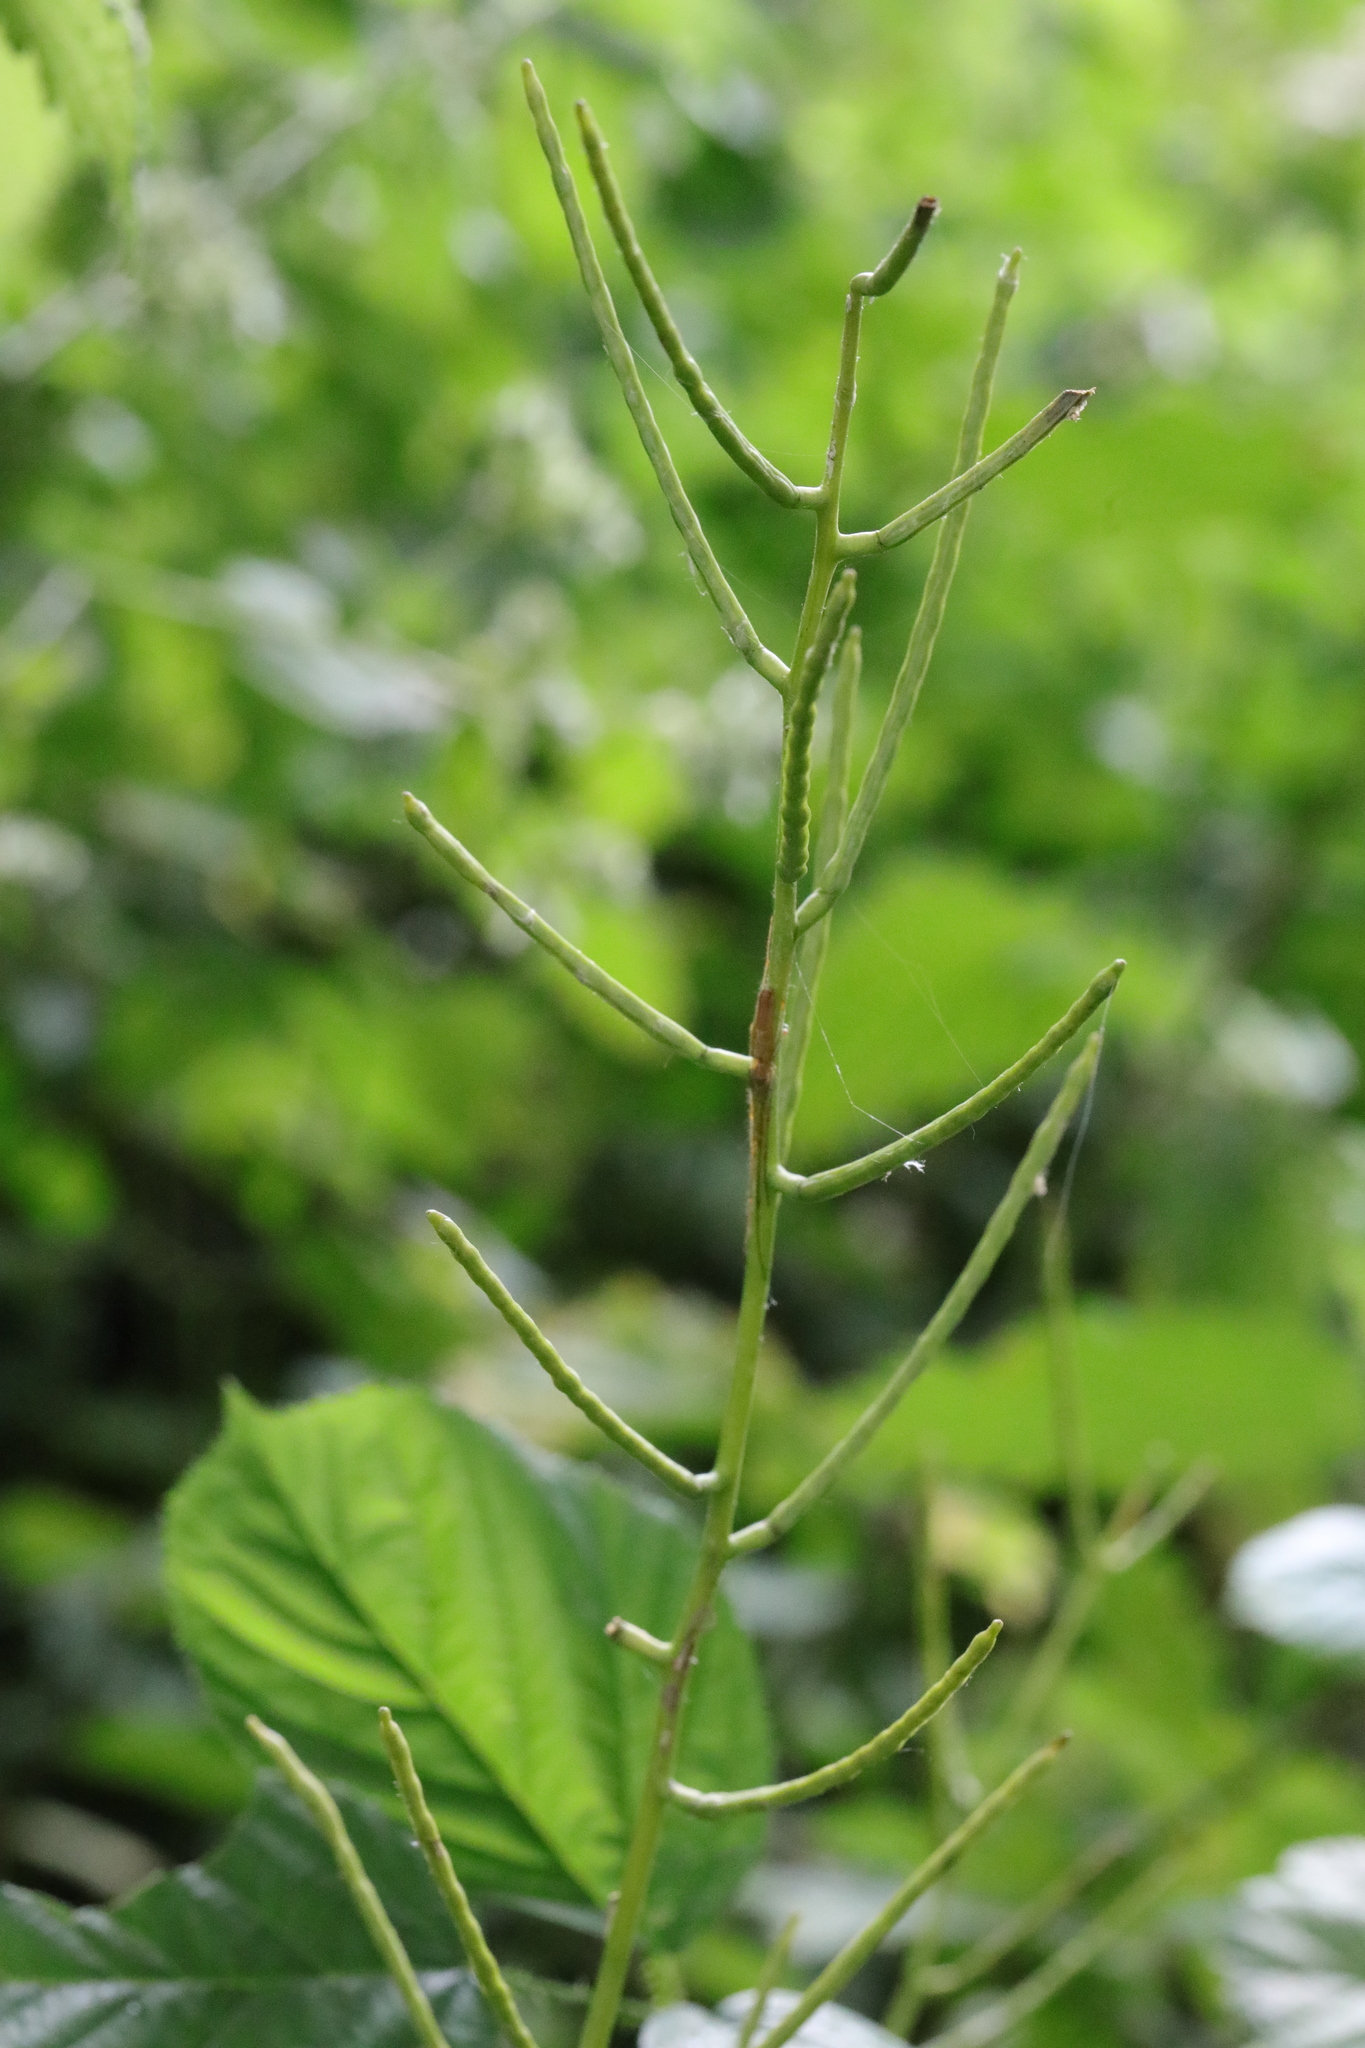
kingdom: Plantae
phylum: Tracheophyta
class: Magnoliopsida
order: Brassicales
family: Brassicaceae
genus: Alliaria
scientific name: Alliaria petiolata
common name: Garlic mustard
